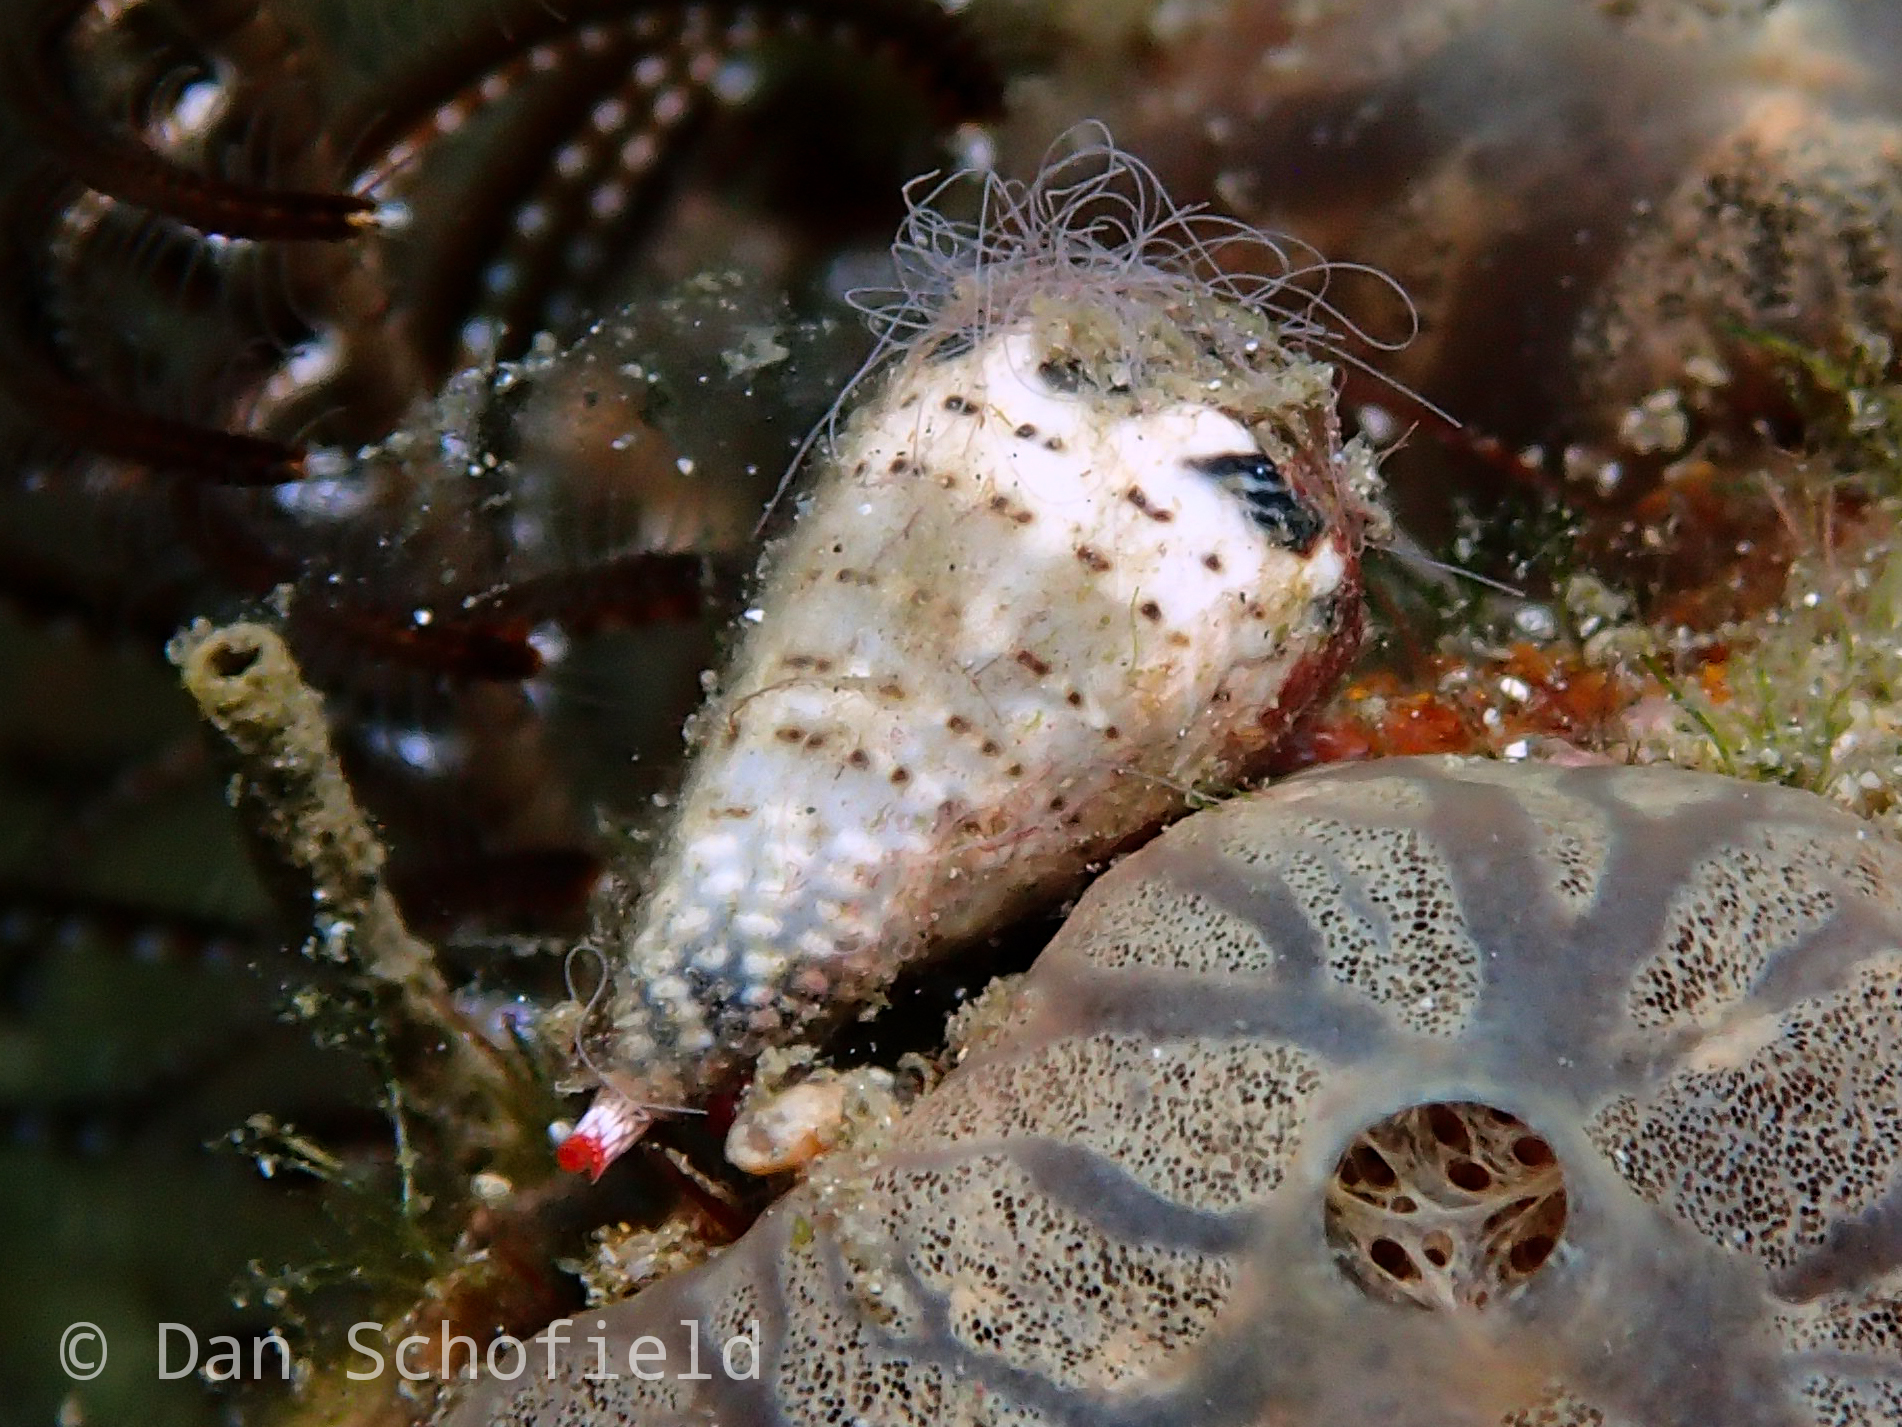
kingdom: Animalia
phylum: Mollusca
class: Gastropoda
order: Neogastropoda
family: Conidae
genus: Conus
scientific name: Conus musicus
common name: Music cone
